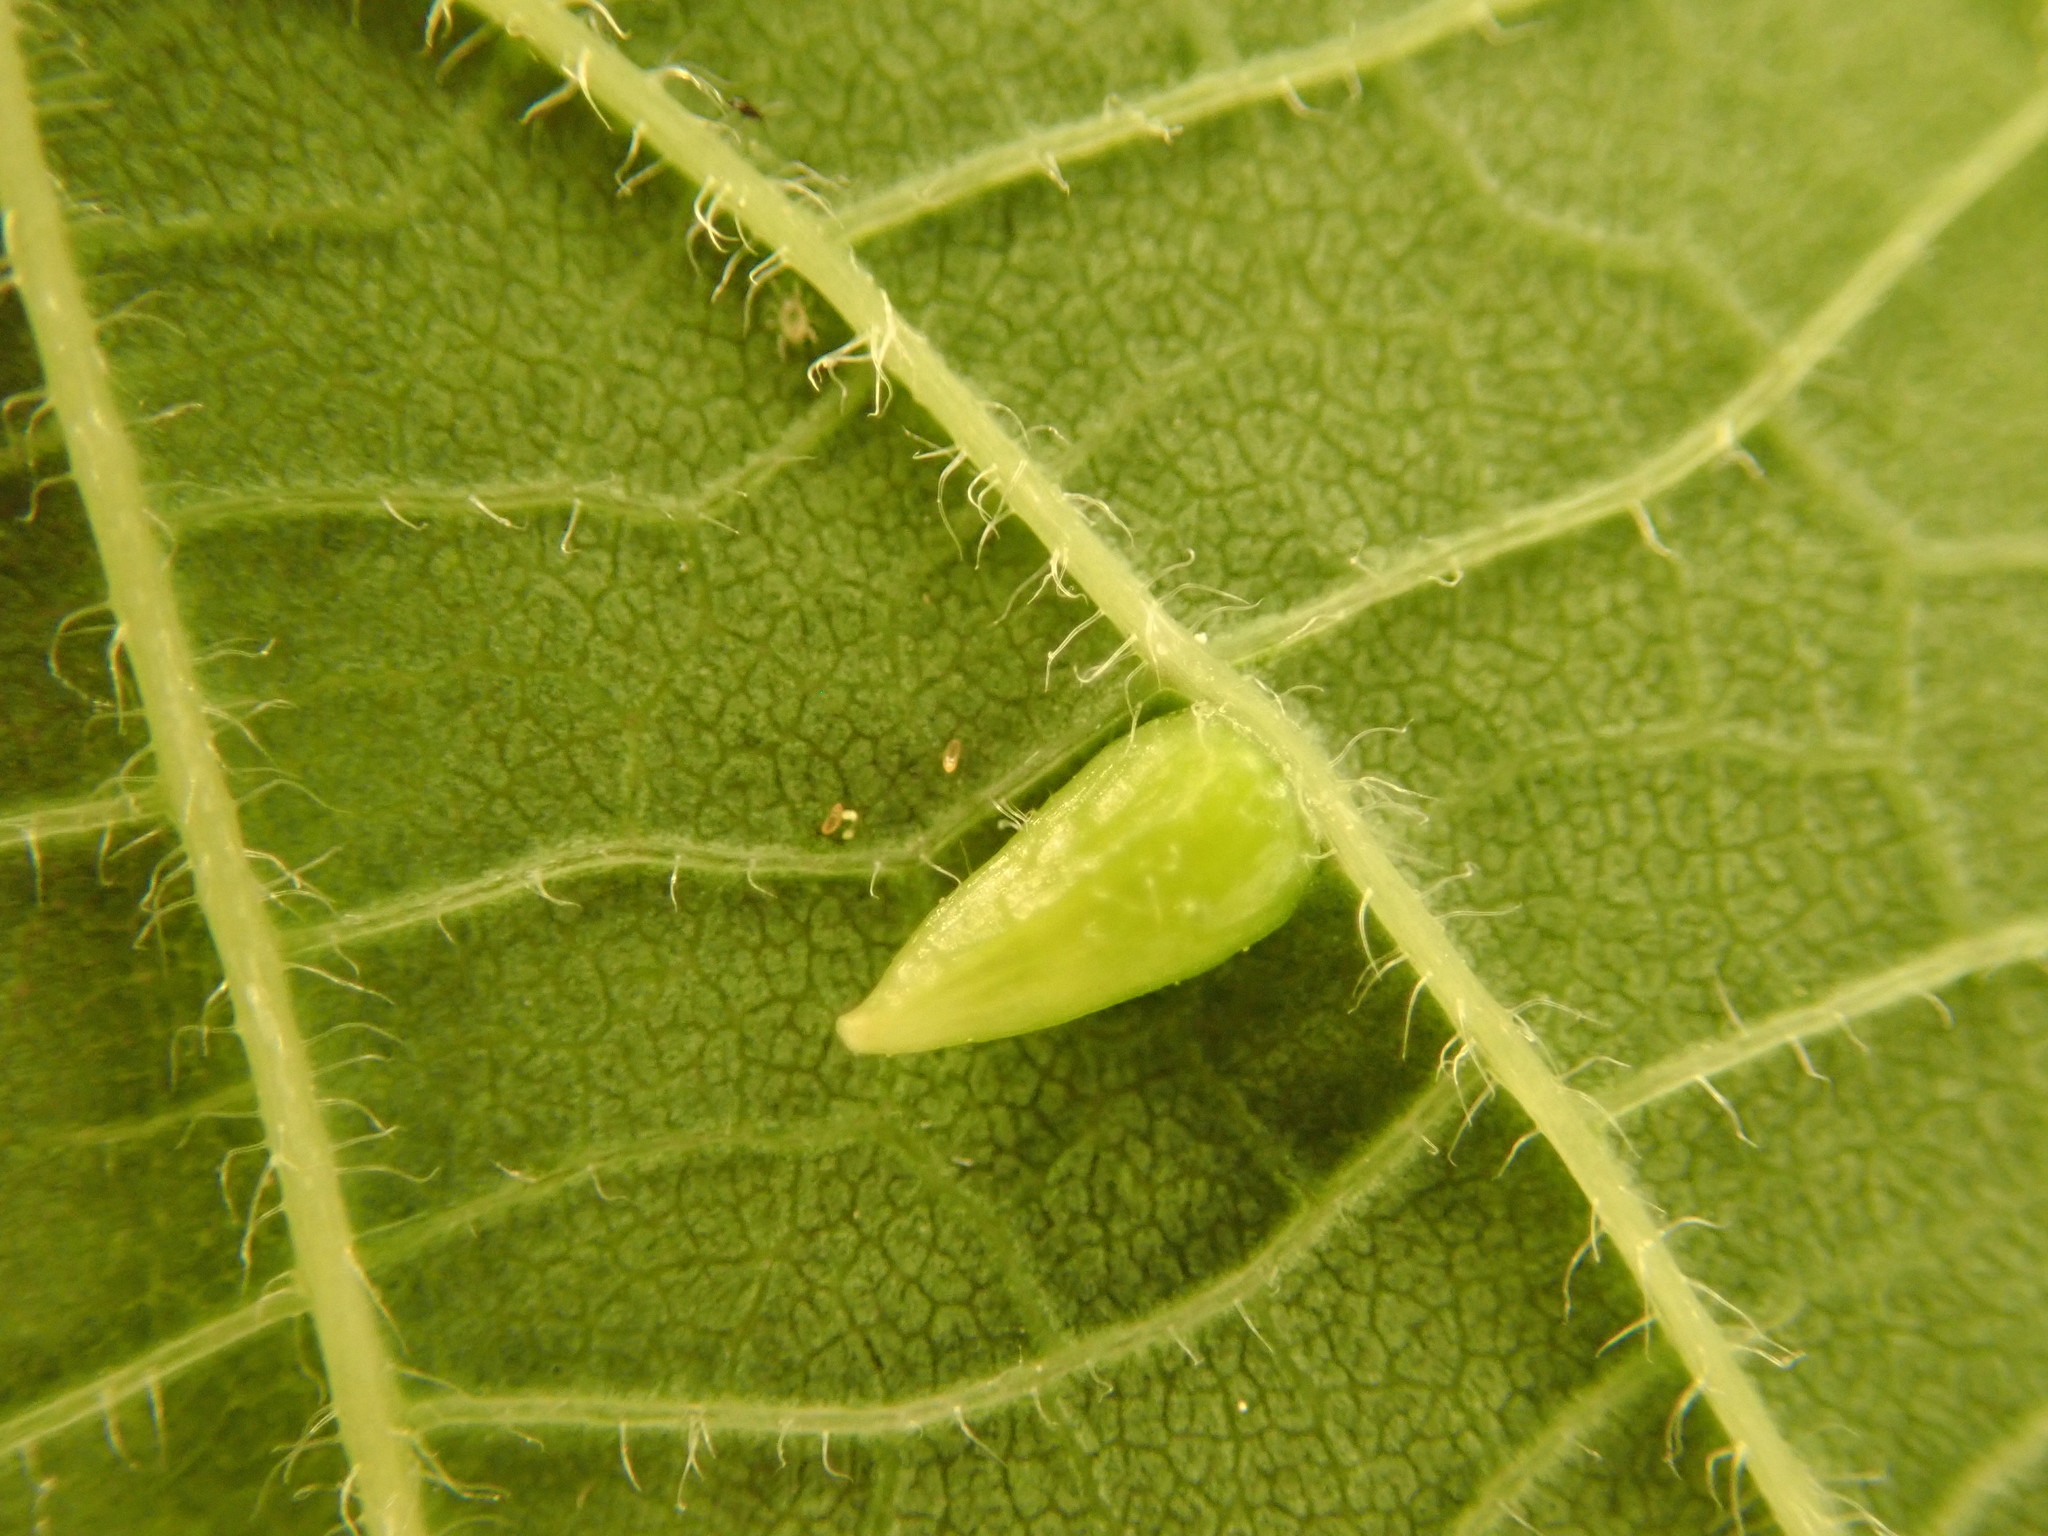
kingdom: Animalia
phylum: Arthropoda
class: Insecta
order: Diptera
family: Cecidomyiidae
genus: Celticecis
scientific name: Celticecis supina
